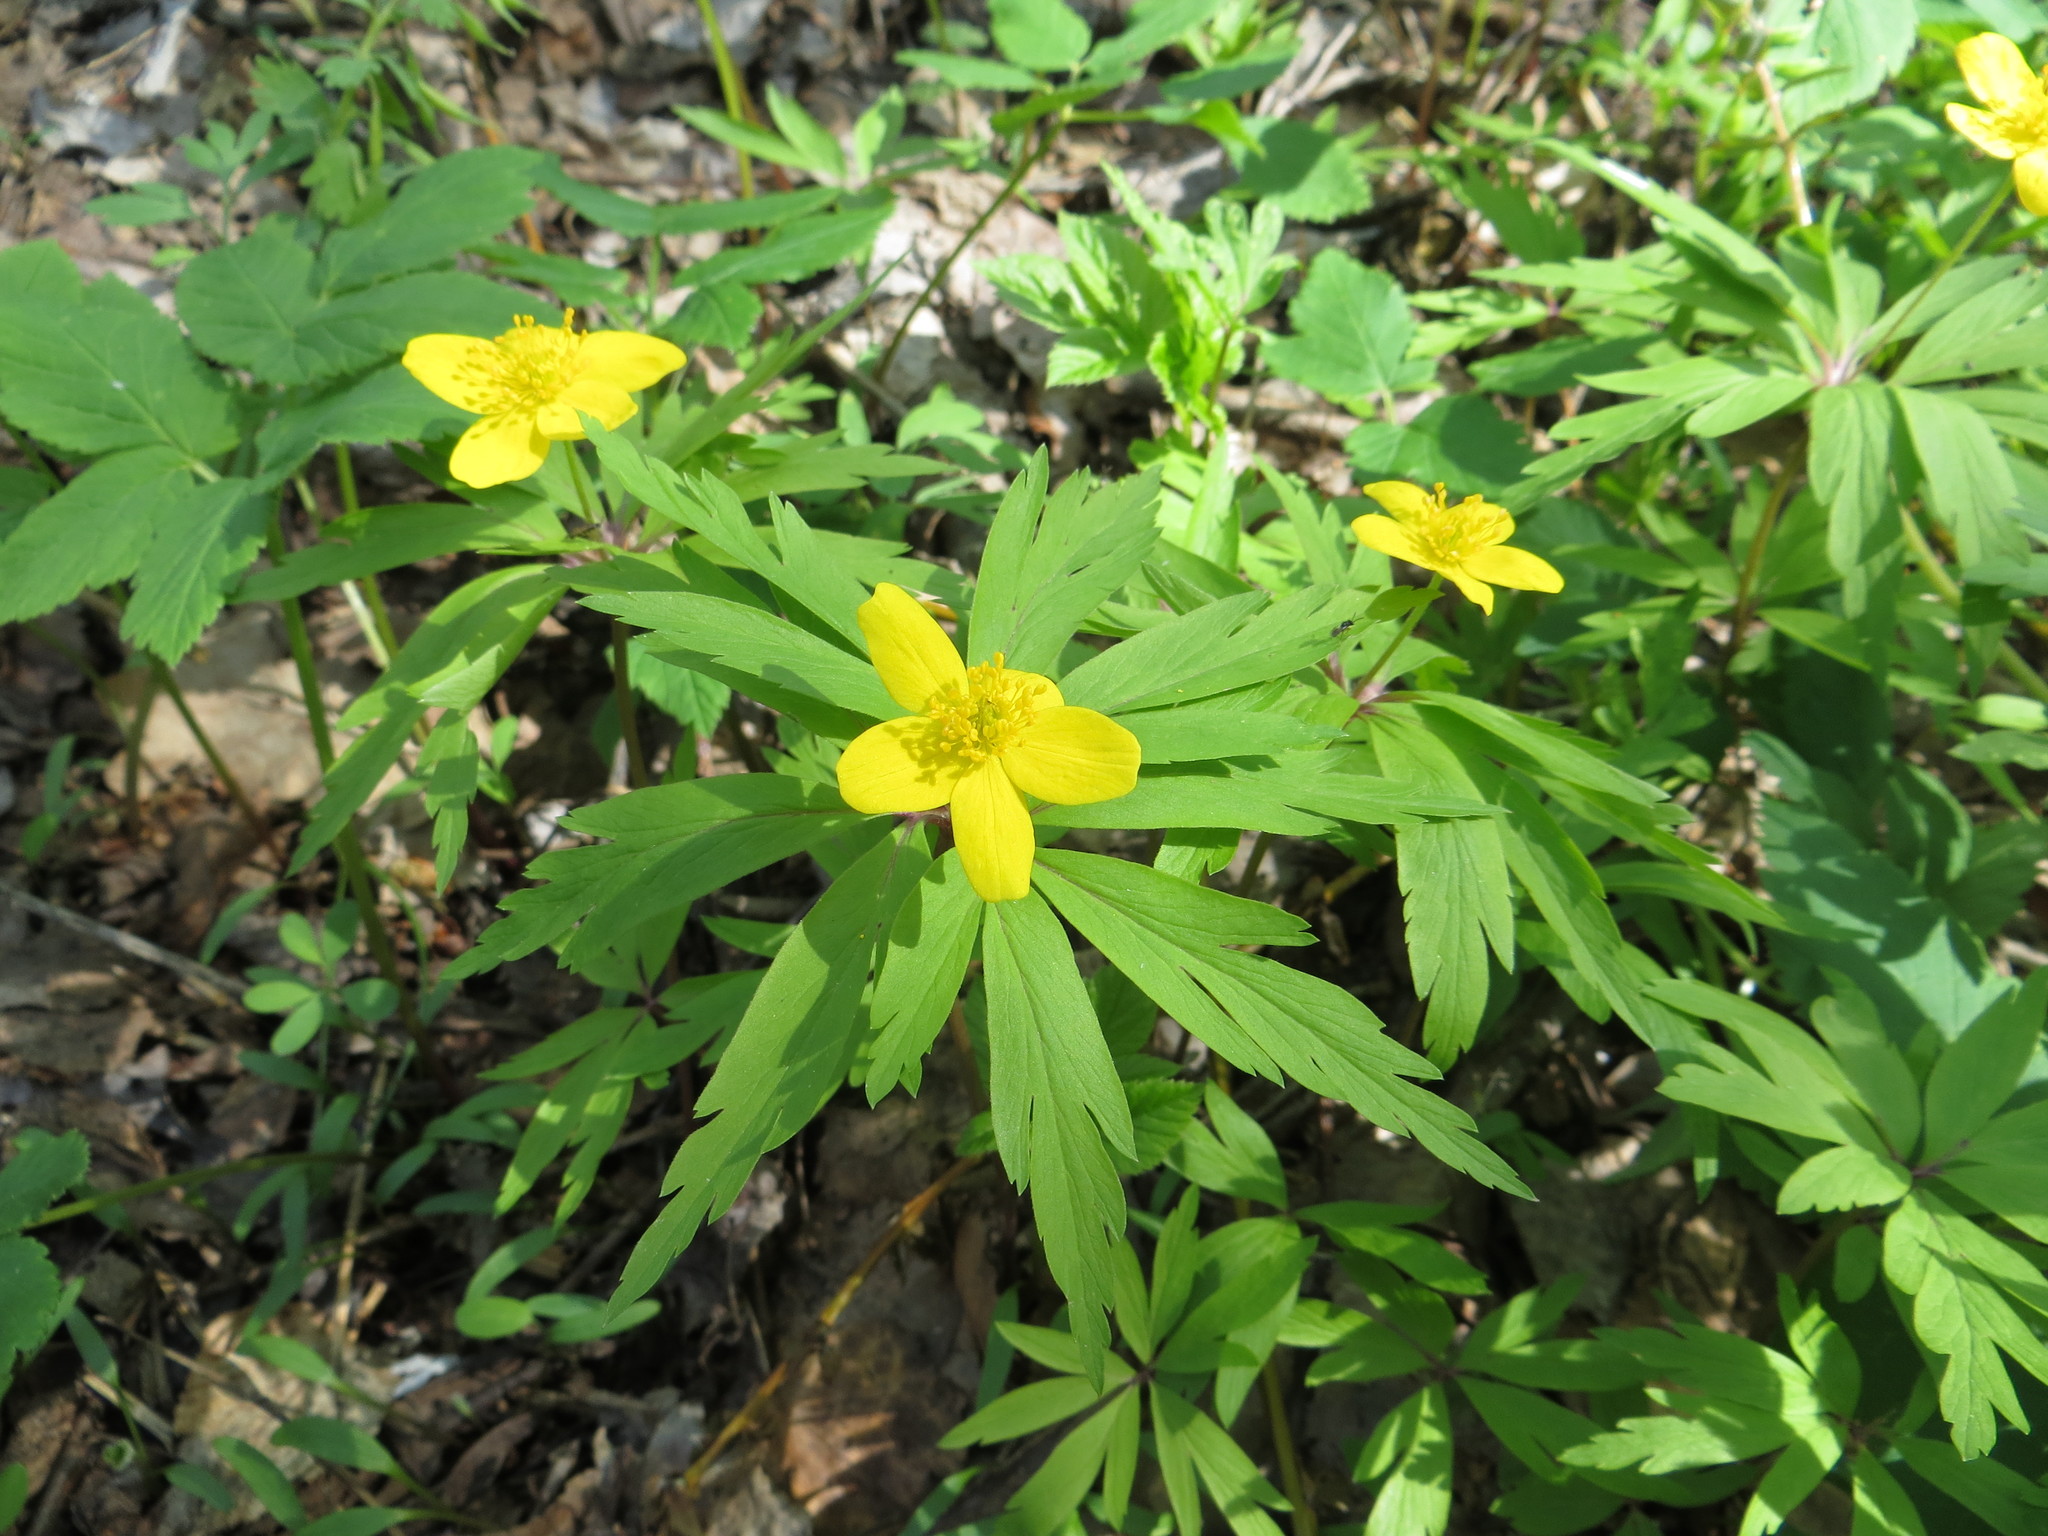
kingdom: Plantae
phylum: Tracheophyta
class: Magnoliopsida
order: Ranunculales
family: Ranunculaceae
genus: Anemone
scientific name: Anemone ranunculoides
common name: Yellow anemone
